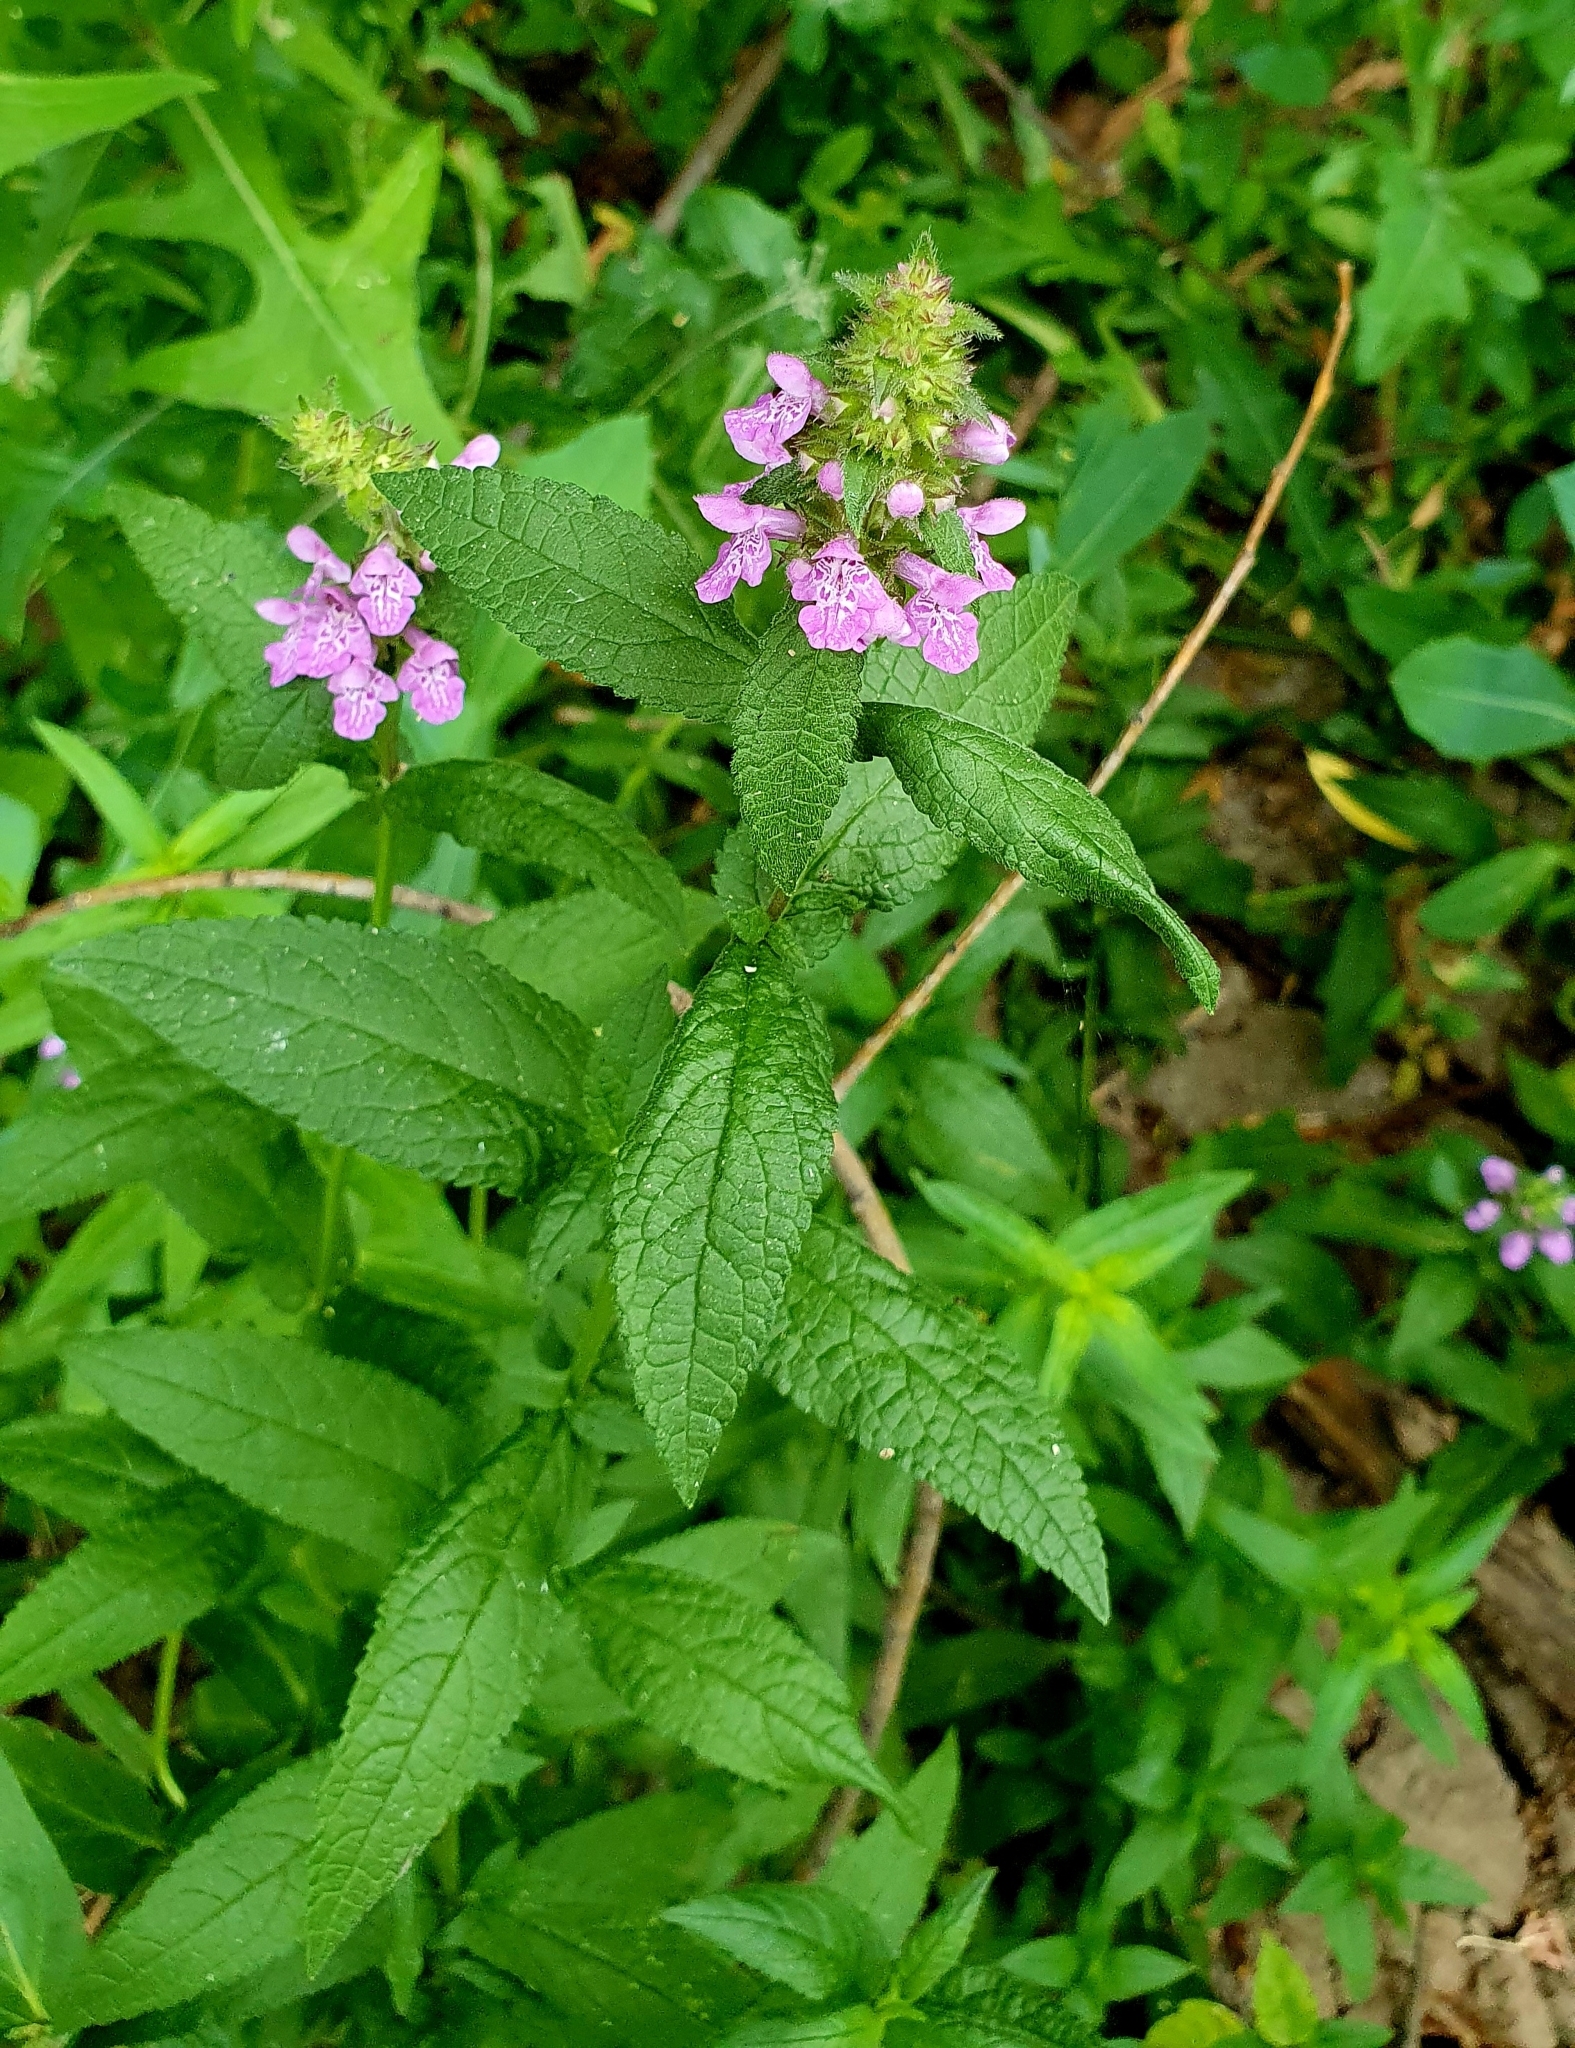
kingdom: Plantae
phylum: Tracheophyta
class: Magnoliopsida
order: Lamiales
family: Lamiaceae
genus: Stachys
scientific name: Stachys palustris
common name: Marsh woundwort
